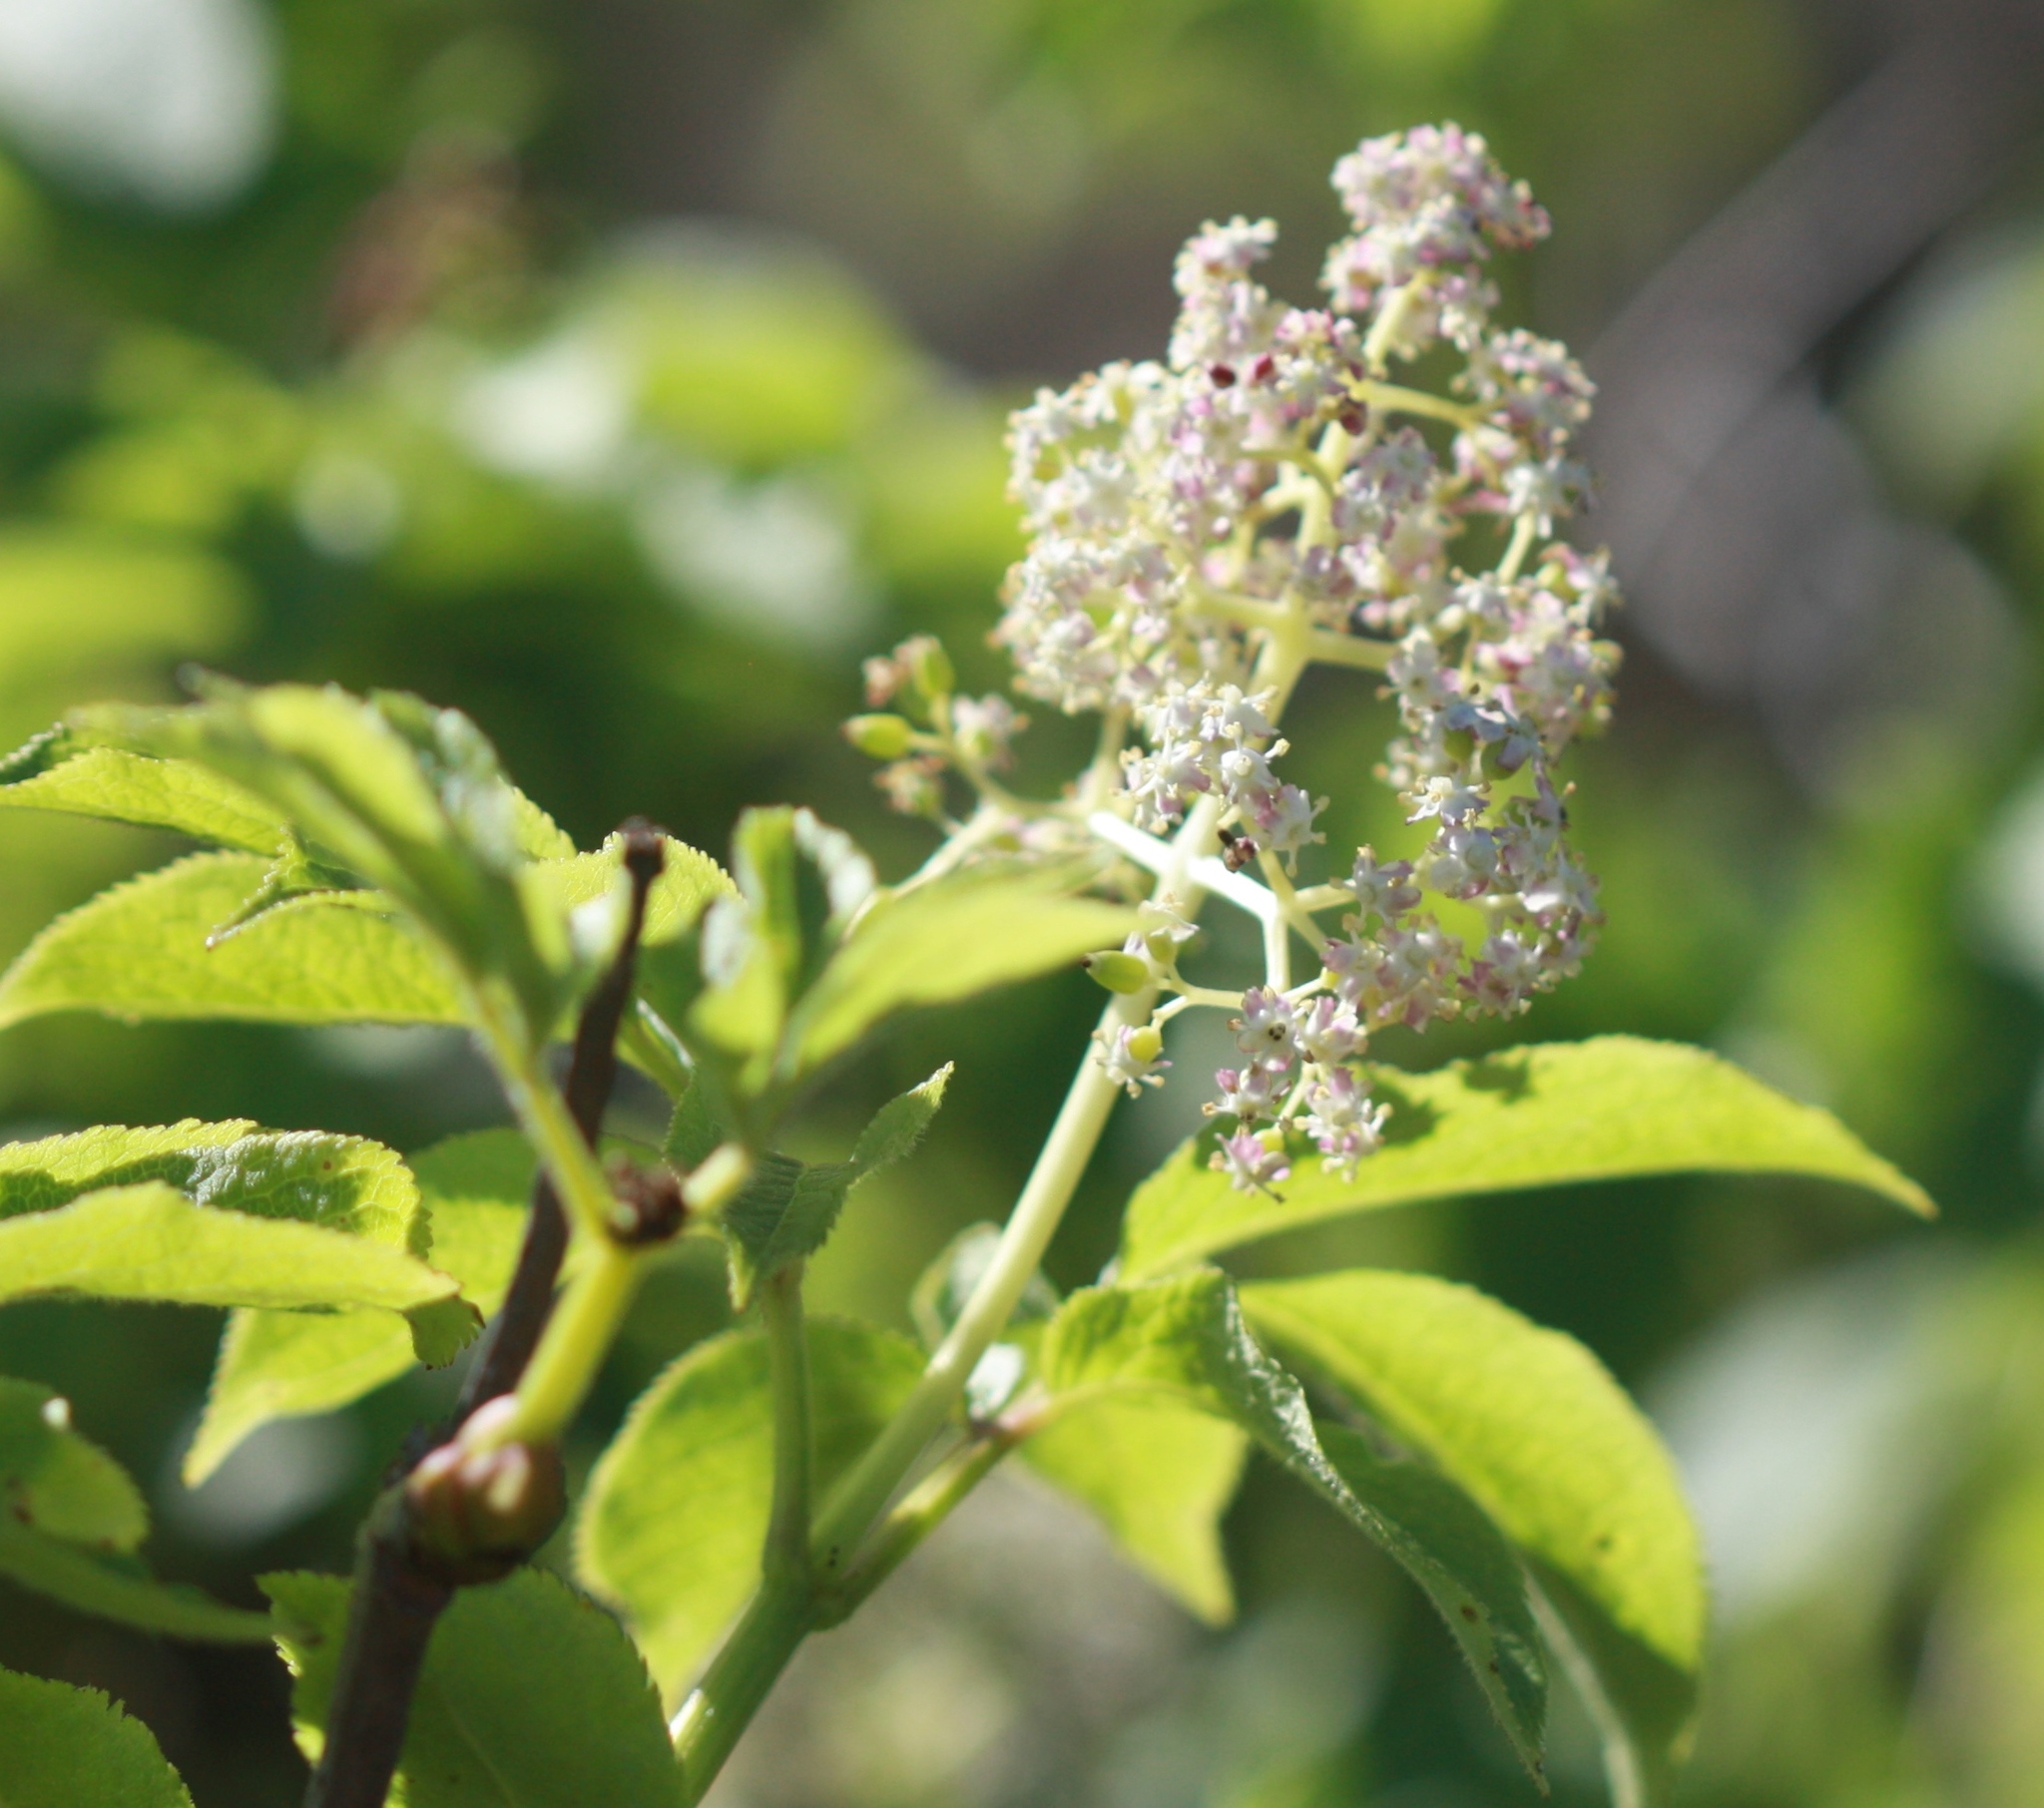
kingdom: Plantae
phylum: Tracheophyta
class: Magnoliopsida
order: Dipsacales
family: Viburnaceae
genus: Sambucus
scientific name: Sambucus racemosa
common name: Red-berried elder
